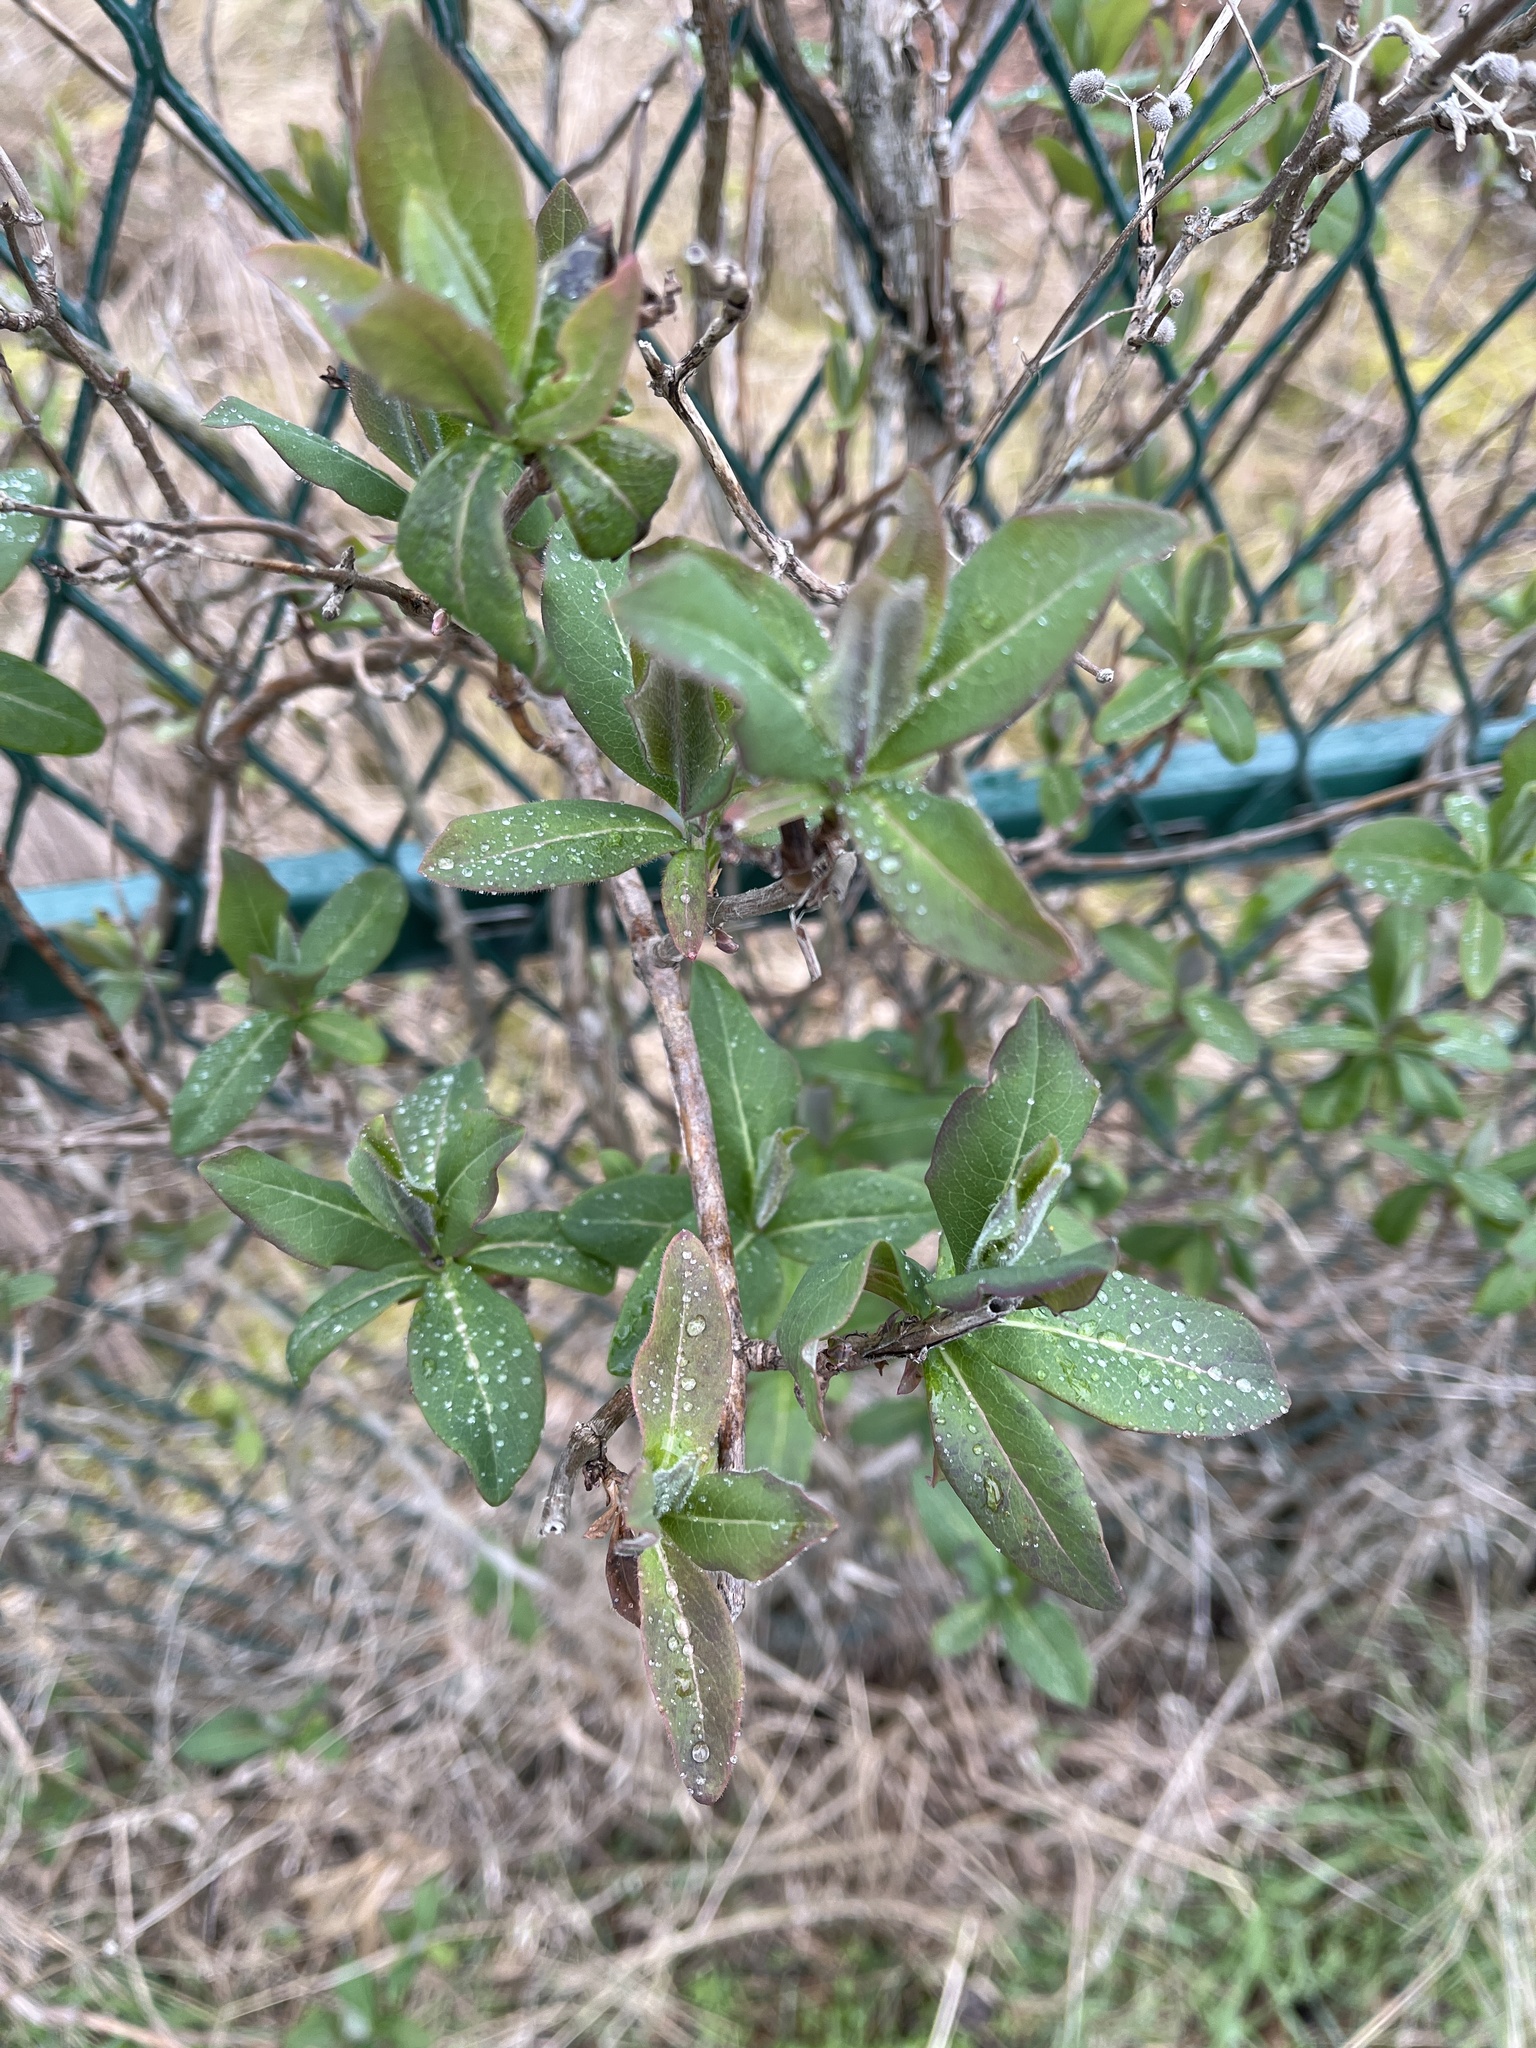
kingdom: Plantae
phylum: Tracheophyta
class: Magnoliopsida
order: Dipsacales
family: Caprifoliaceae
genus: Lonicera
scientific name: Lonicera periclymenum
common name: European honeysuckle
